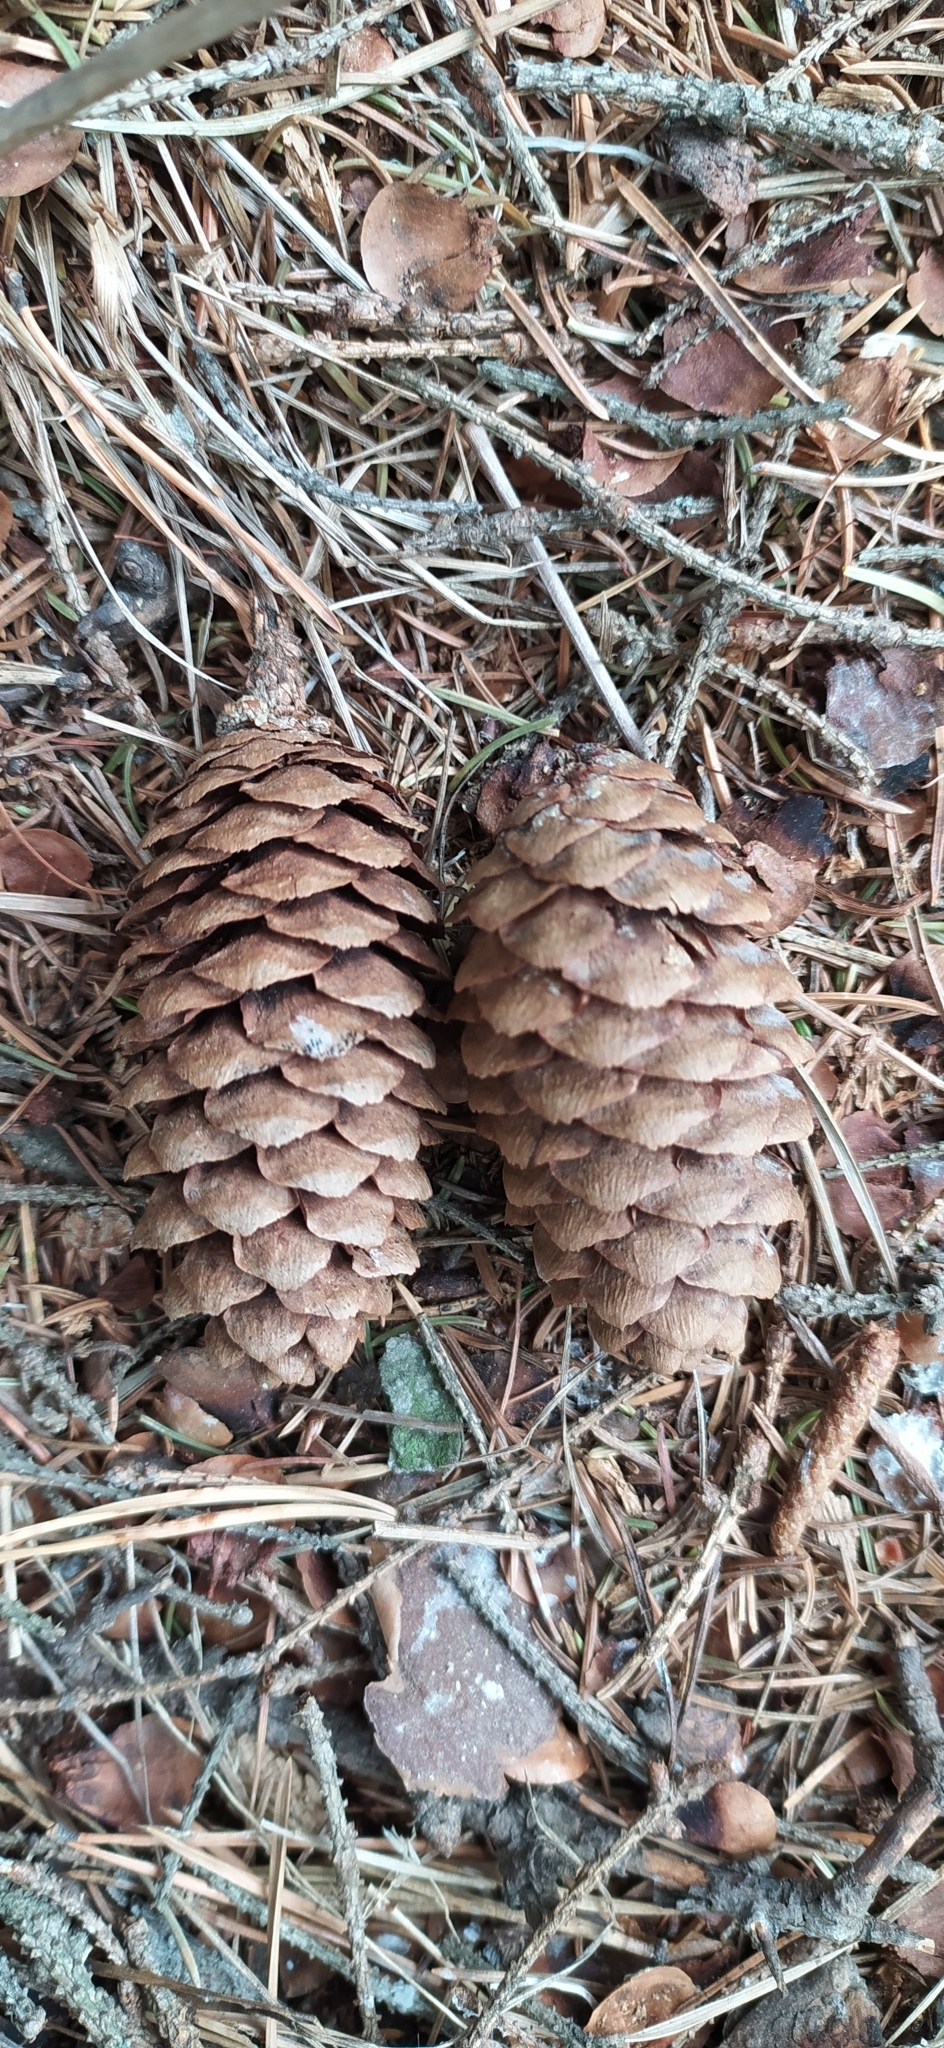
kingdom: Plantae
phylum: Tracheophyta
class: Pinopsida
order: Pinales
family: Pinaceae
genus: Picea
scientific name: Picea fennica
